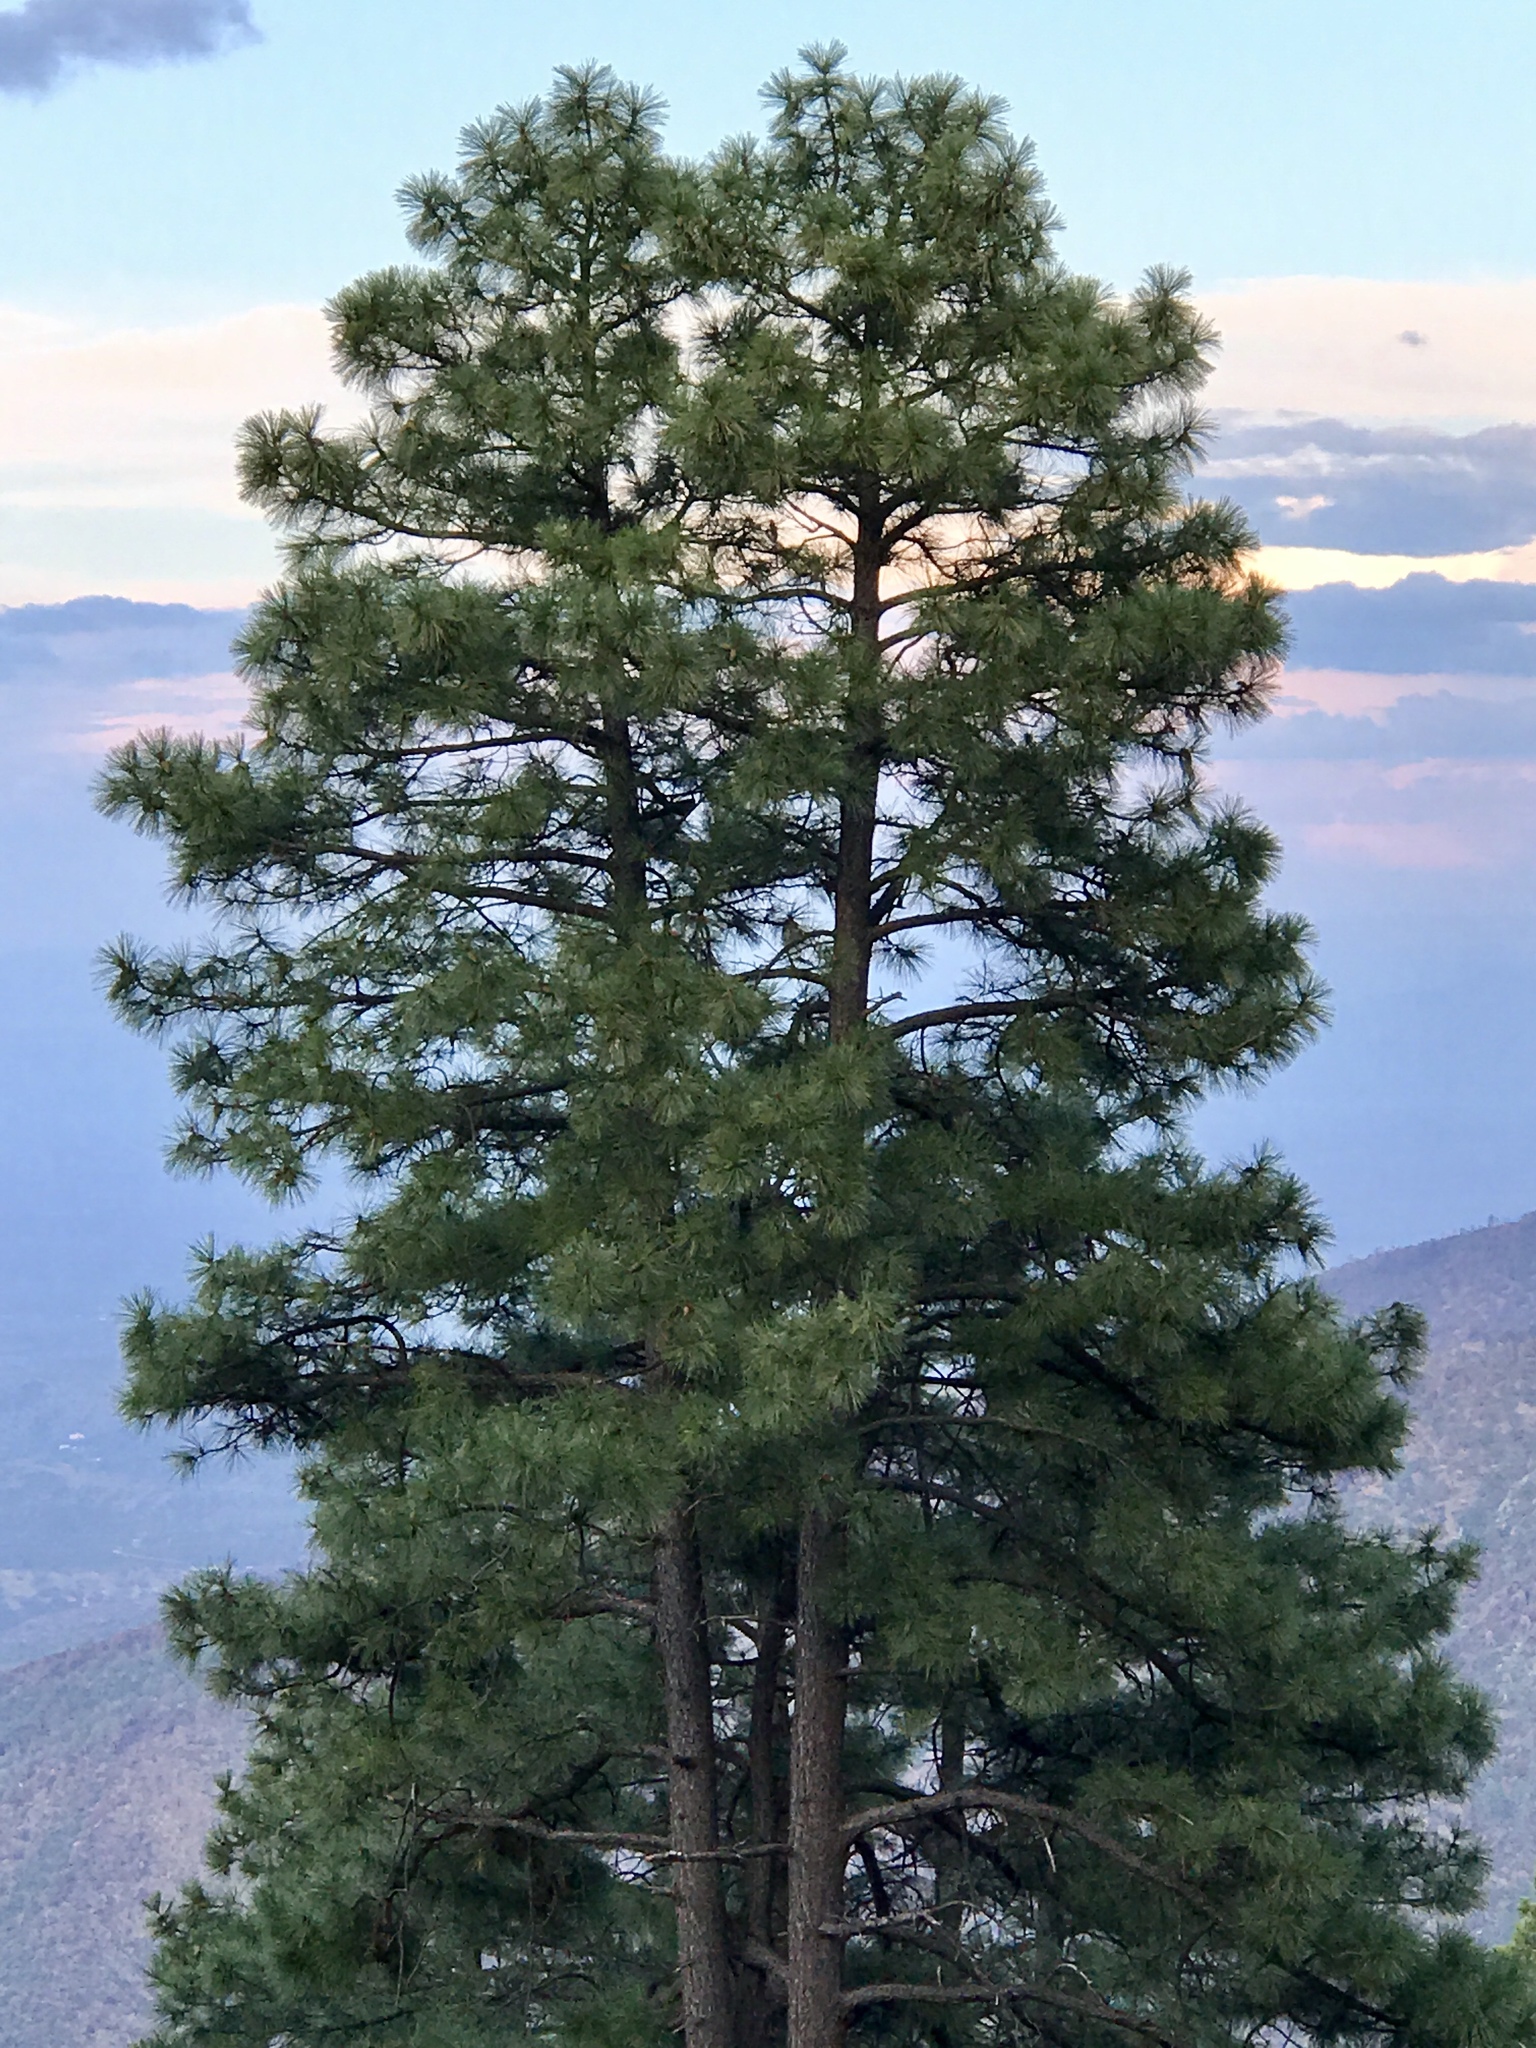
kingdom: Plantae
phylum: Tracheophyta
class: Pinopsida
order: Pinales
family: Pinaceae
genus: Pinus
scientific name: Pinus ponderosa
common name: Western yellow-pine
